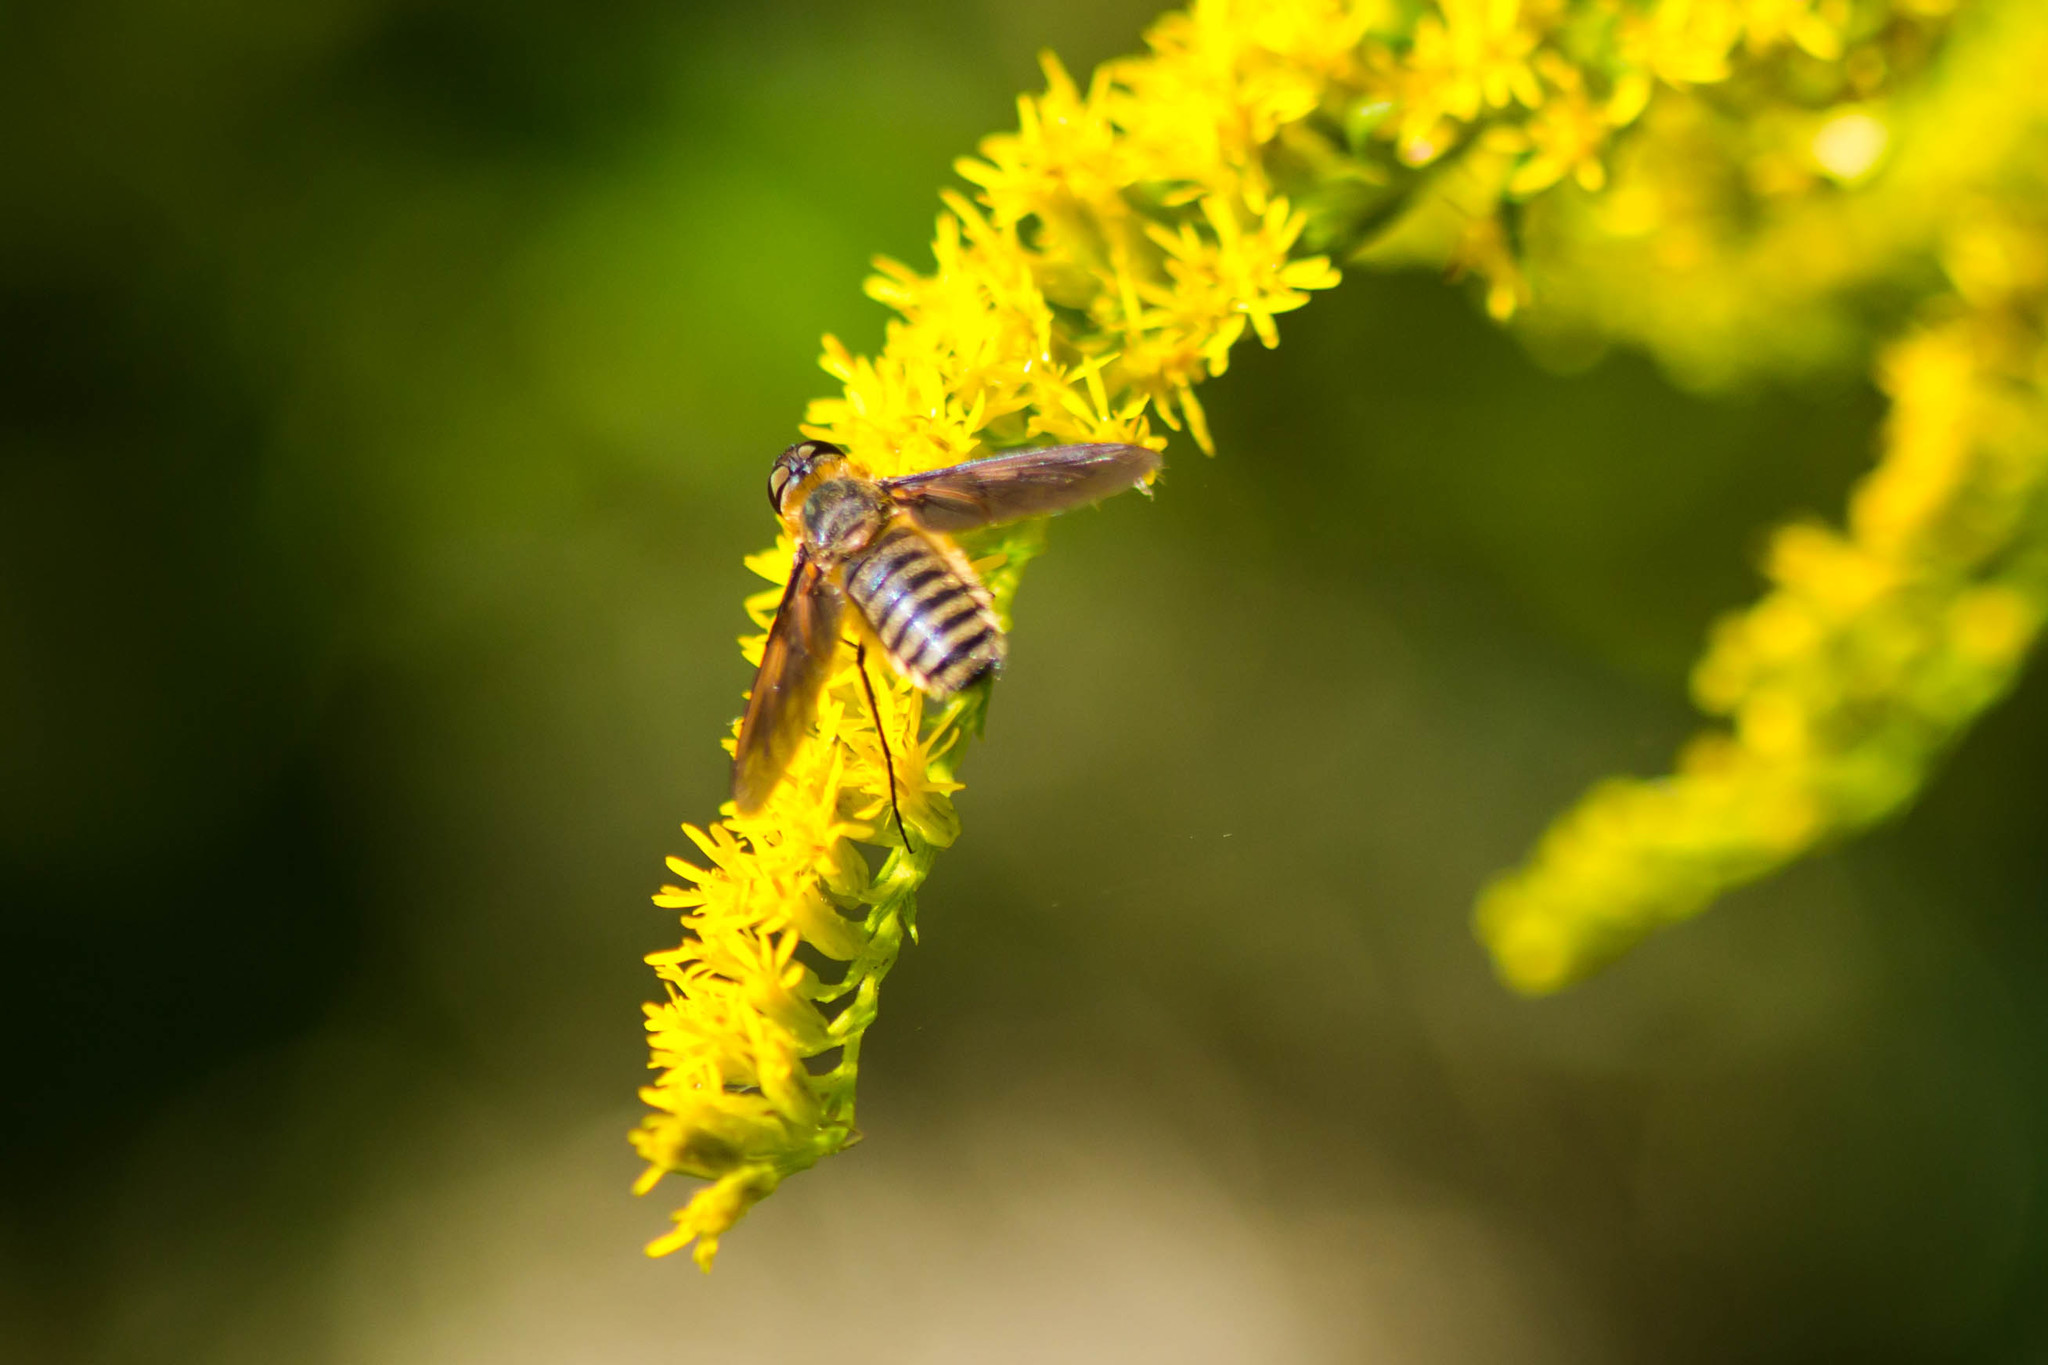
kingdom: Animalia
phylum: Arthropoda
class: Insecta
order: Diptera
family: Bombyliidae
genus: Poecilanthrax
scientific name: Poecilanthrax lucifer
